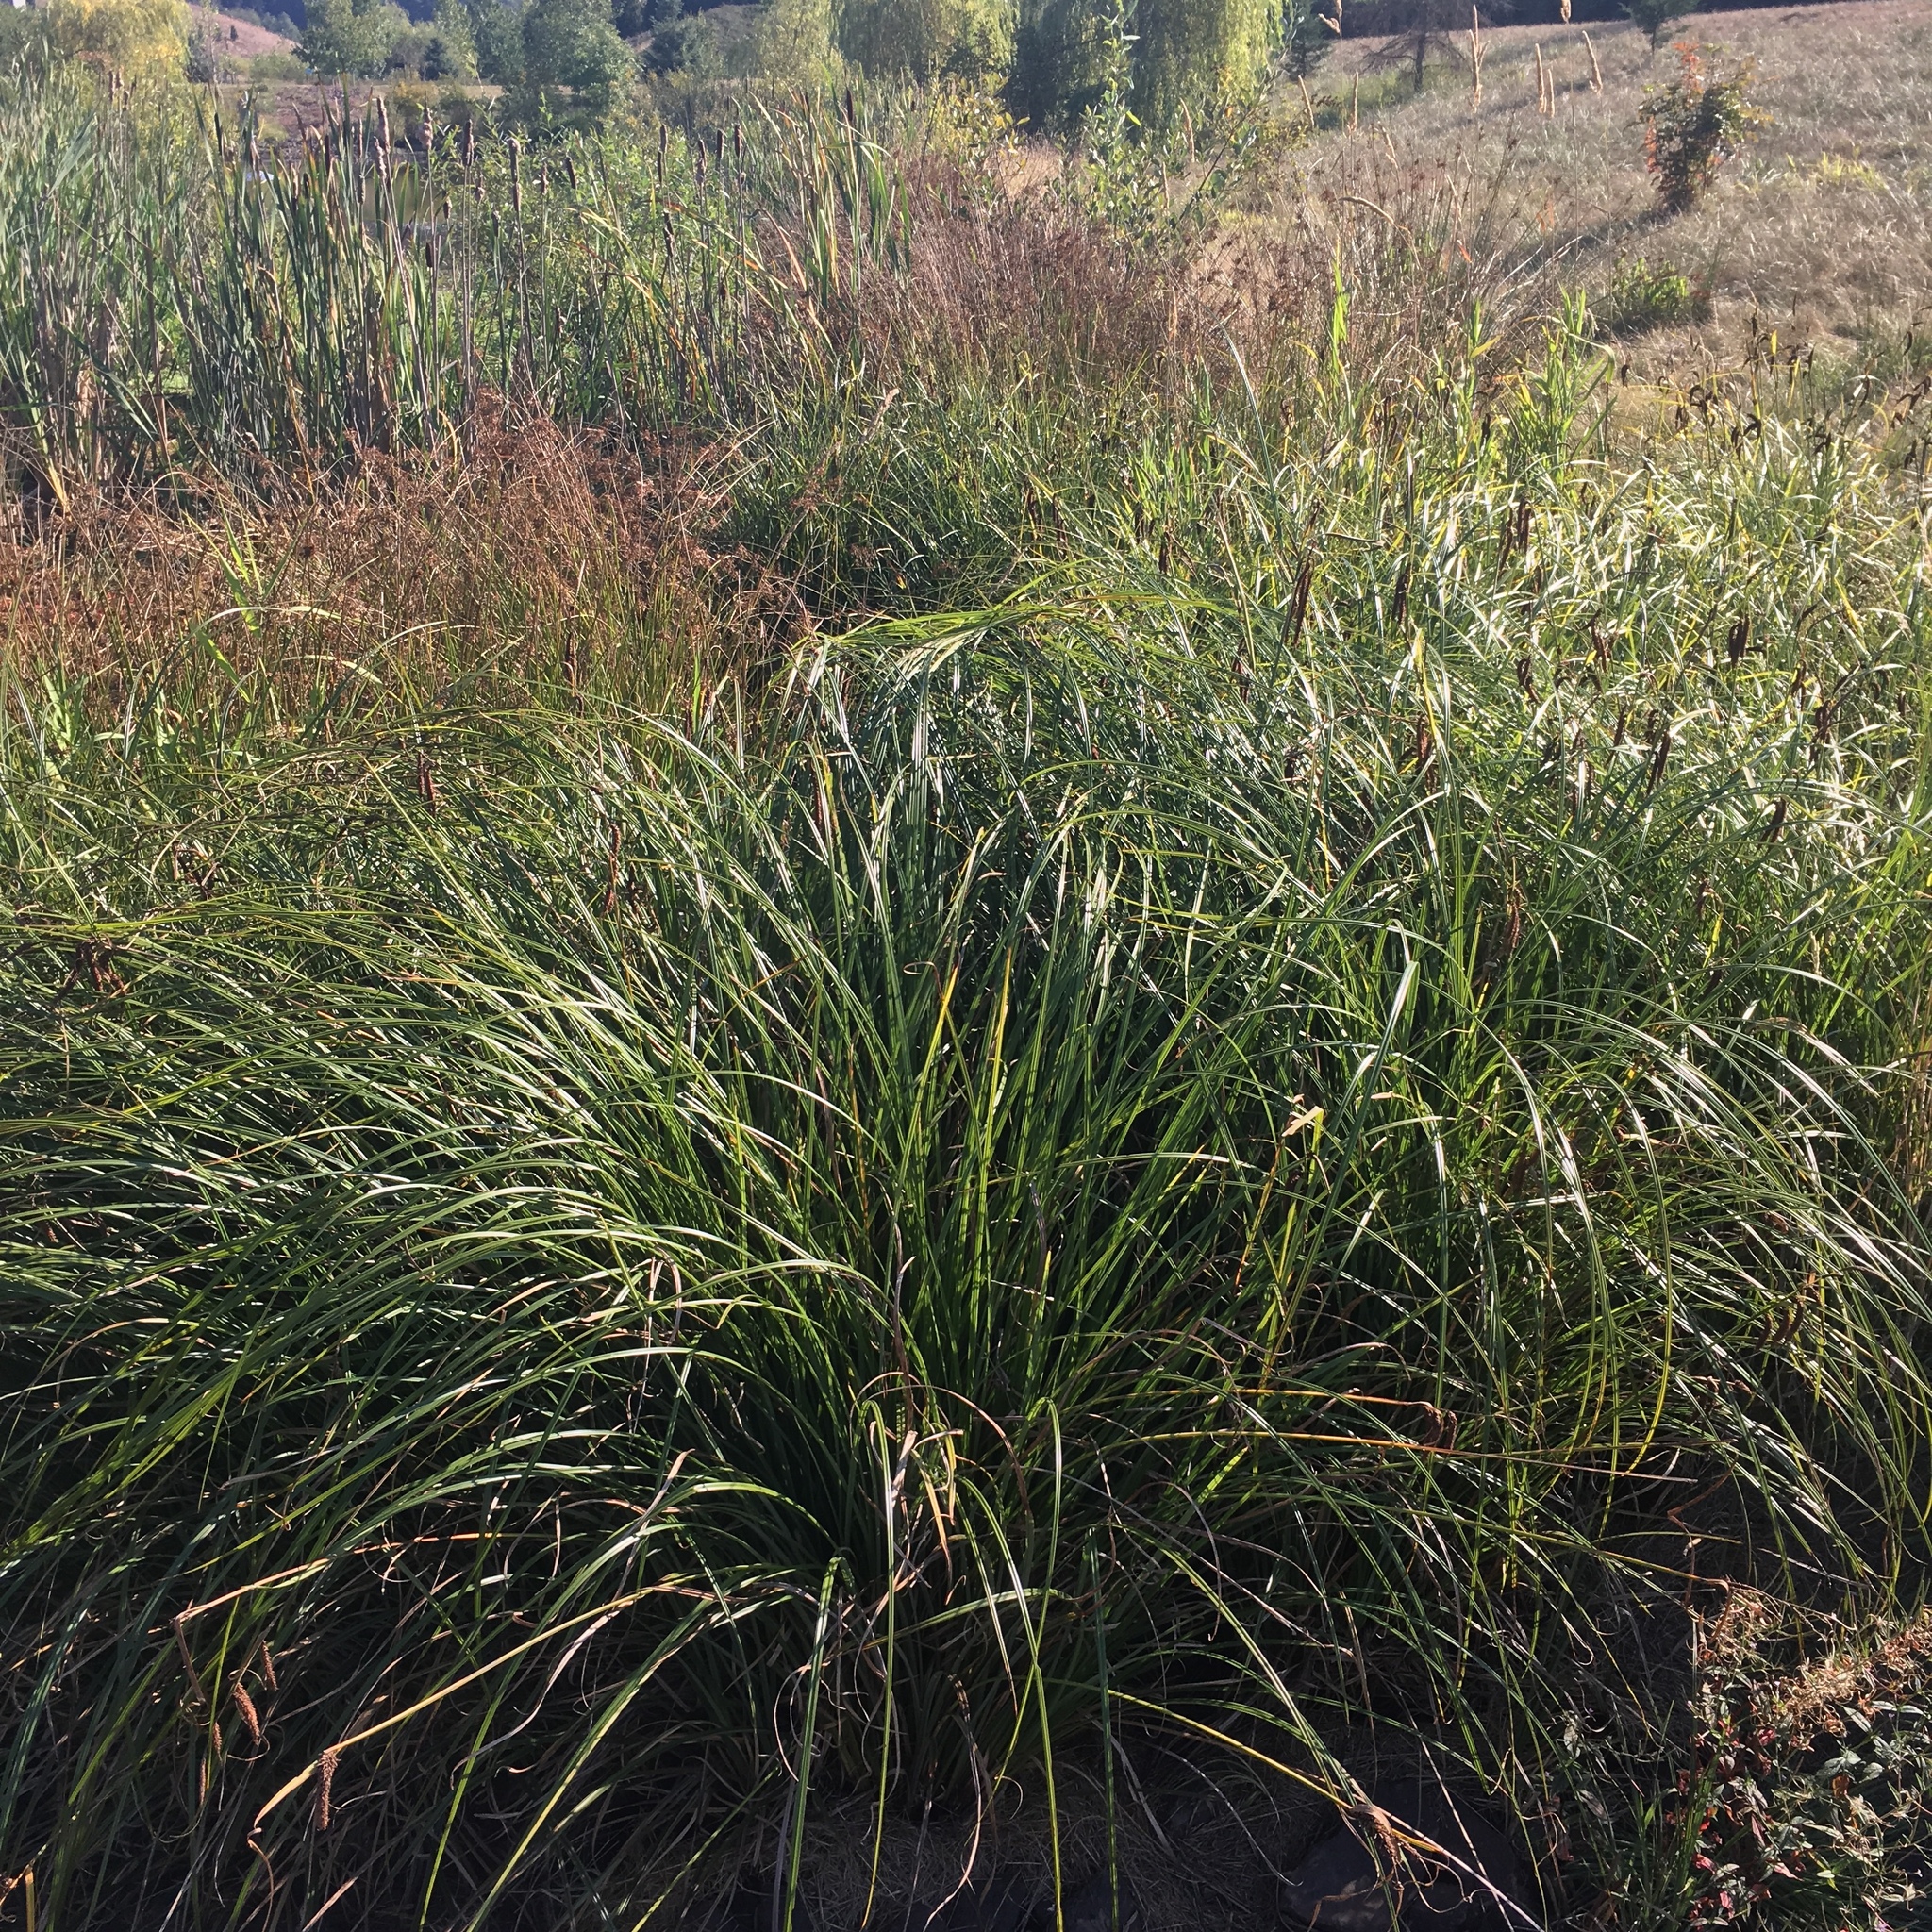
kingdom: Plantae
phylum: Tracheophyta
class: Liliopsida
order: Poales
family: Cyperaceae
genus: Carex
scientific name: Carex obnupta
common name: Slough sedge
